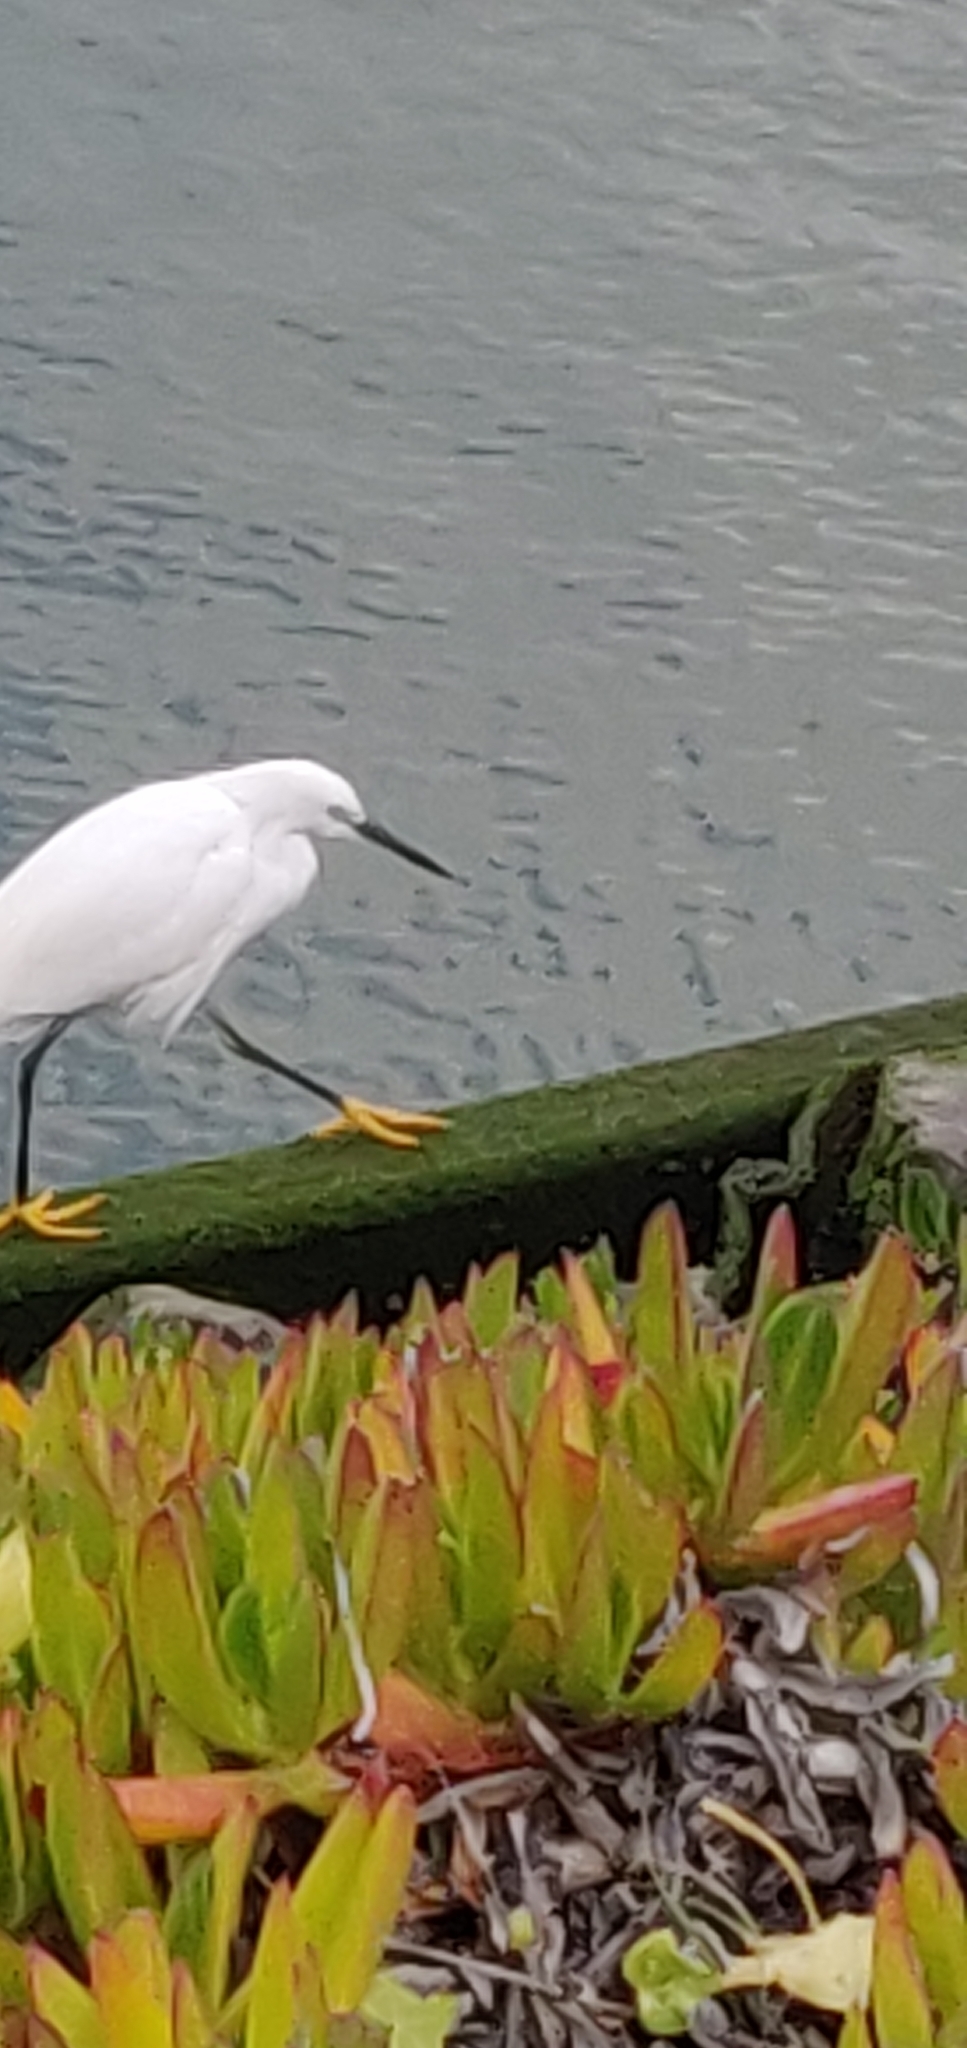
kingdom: Animalia
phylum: Chordata
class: Aves
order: Pelecaniformes
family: Ardeidae
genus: Egretta
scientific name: Egretta thula
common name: Snowy egret
